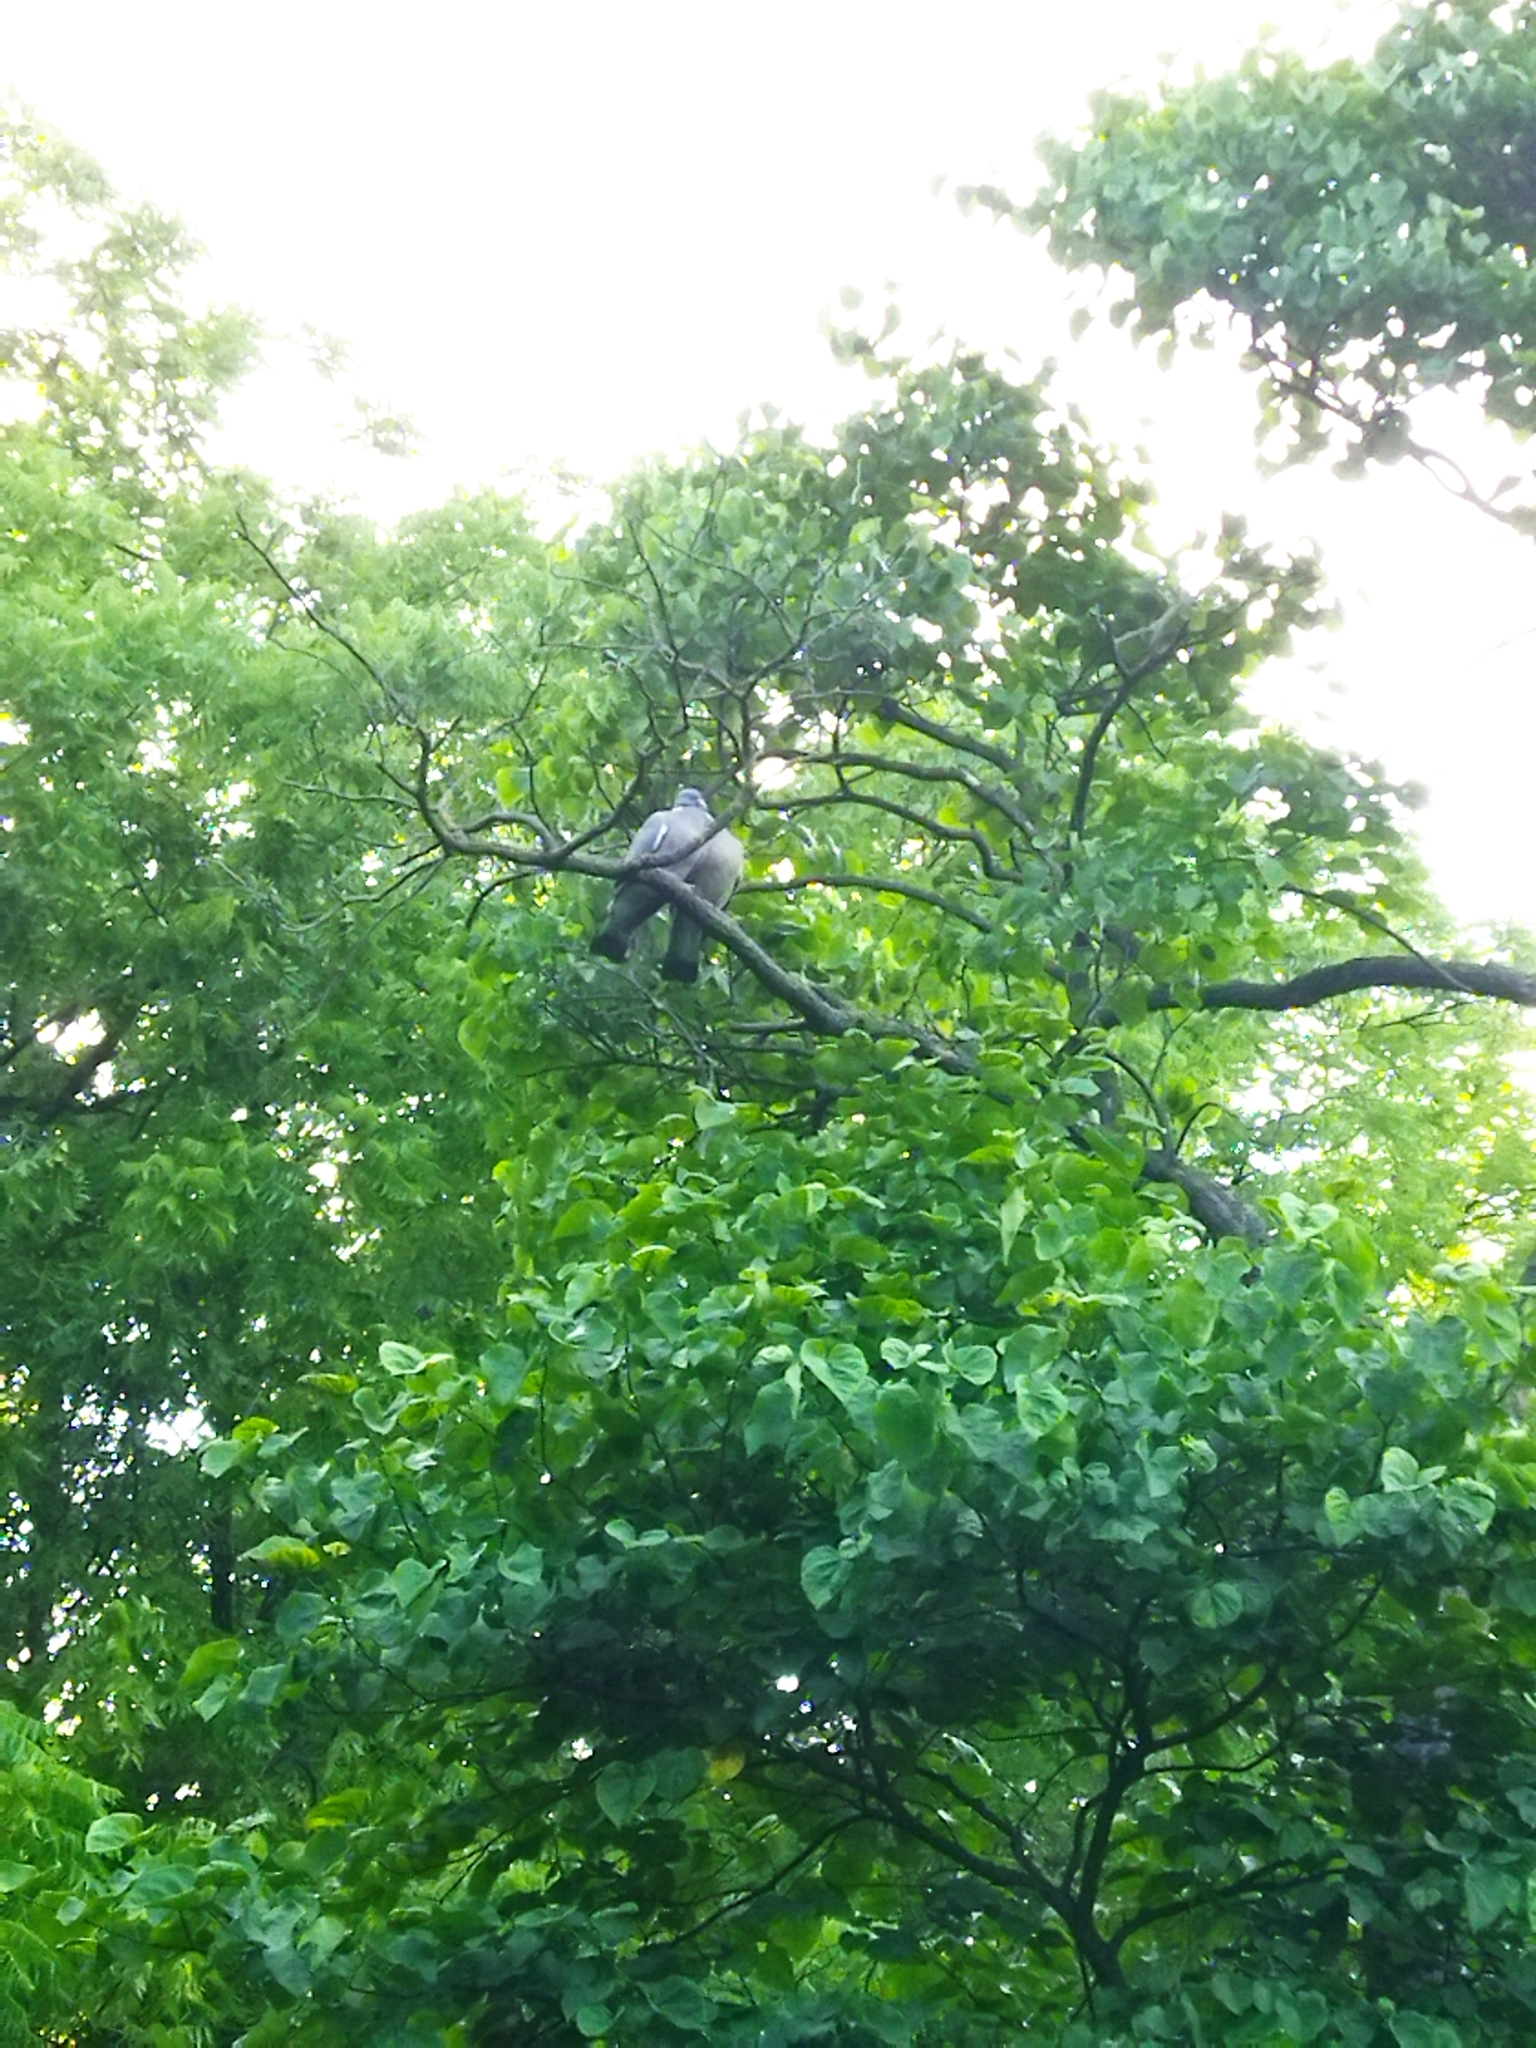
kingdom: Animalia
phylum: Chordata
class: Aves
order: Columbiformes
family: Columbidae
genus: Columba
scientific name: Columba palumbus
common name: Common wood pigeon
